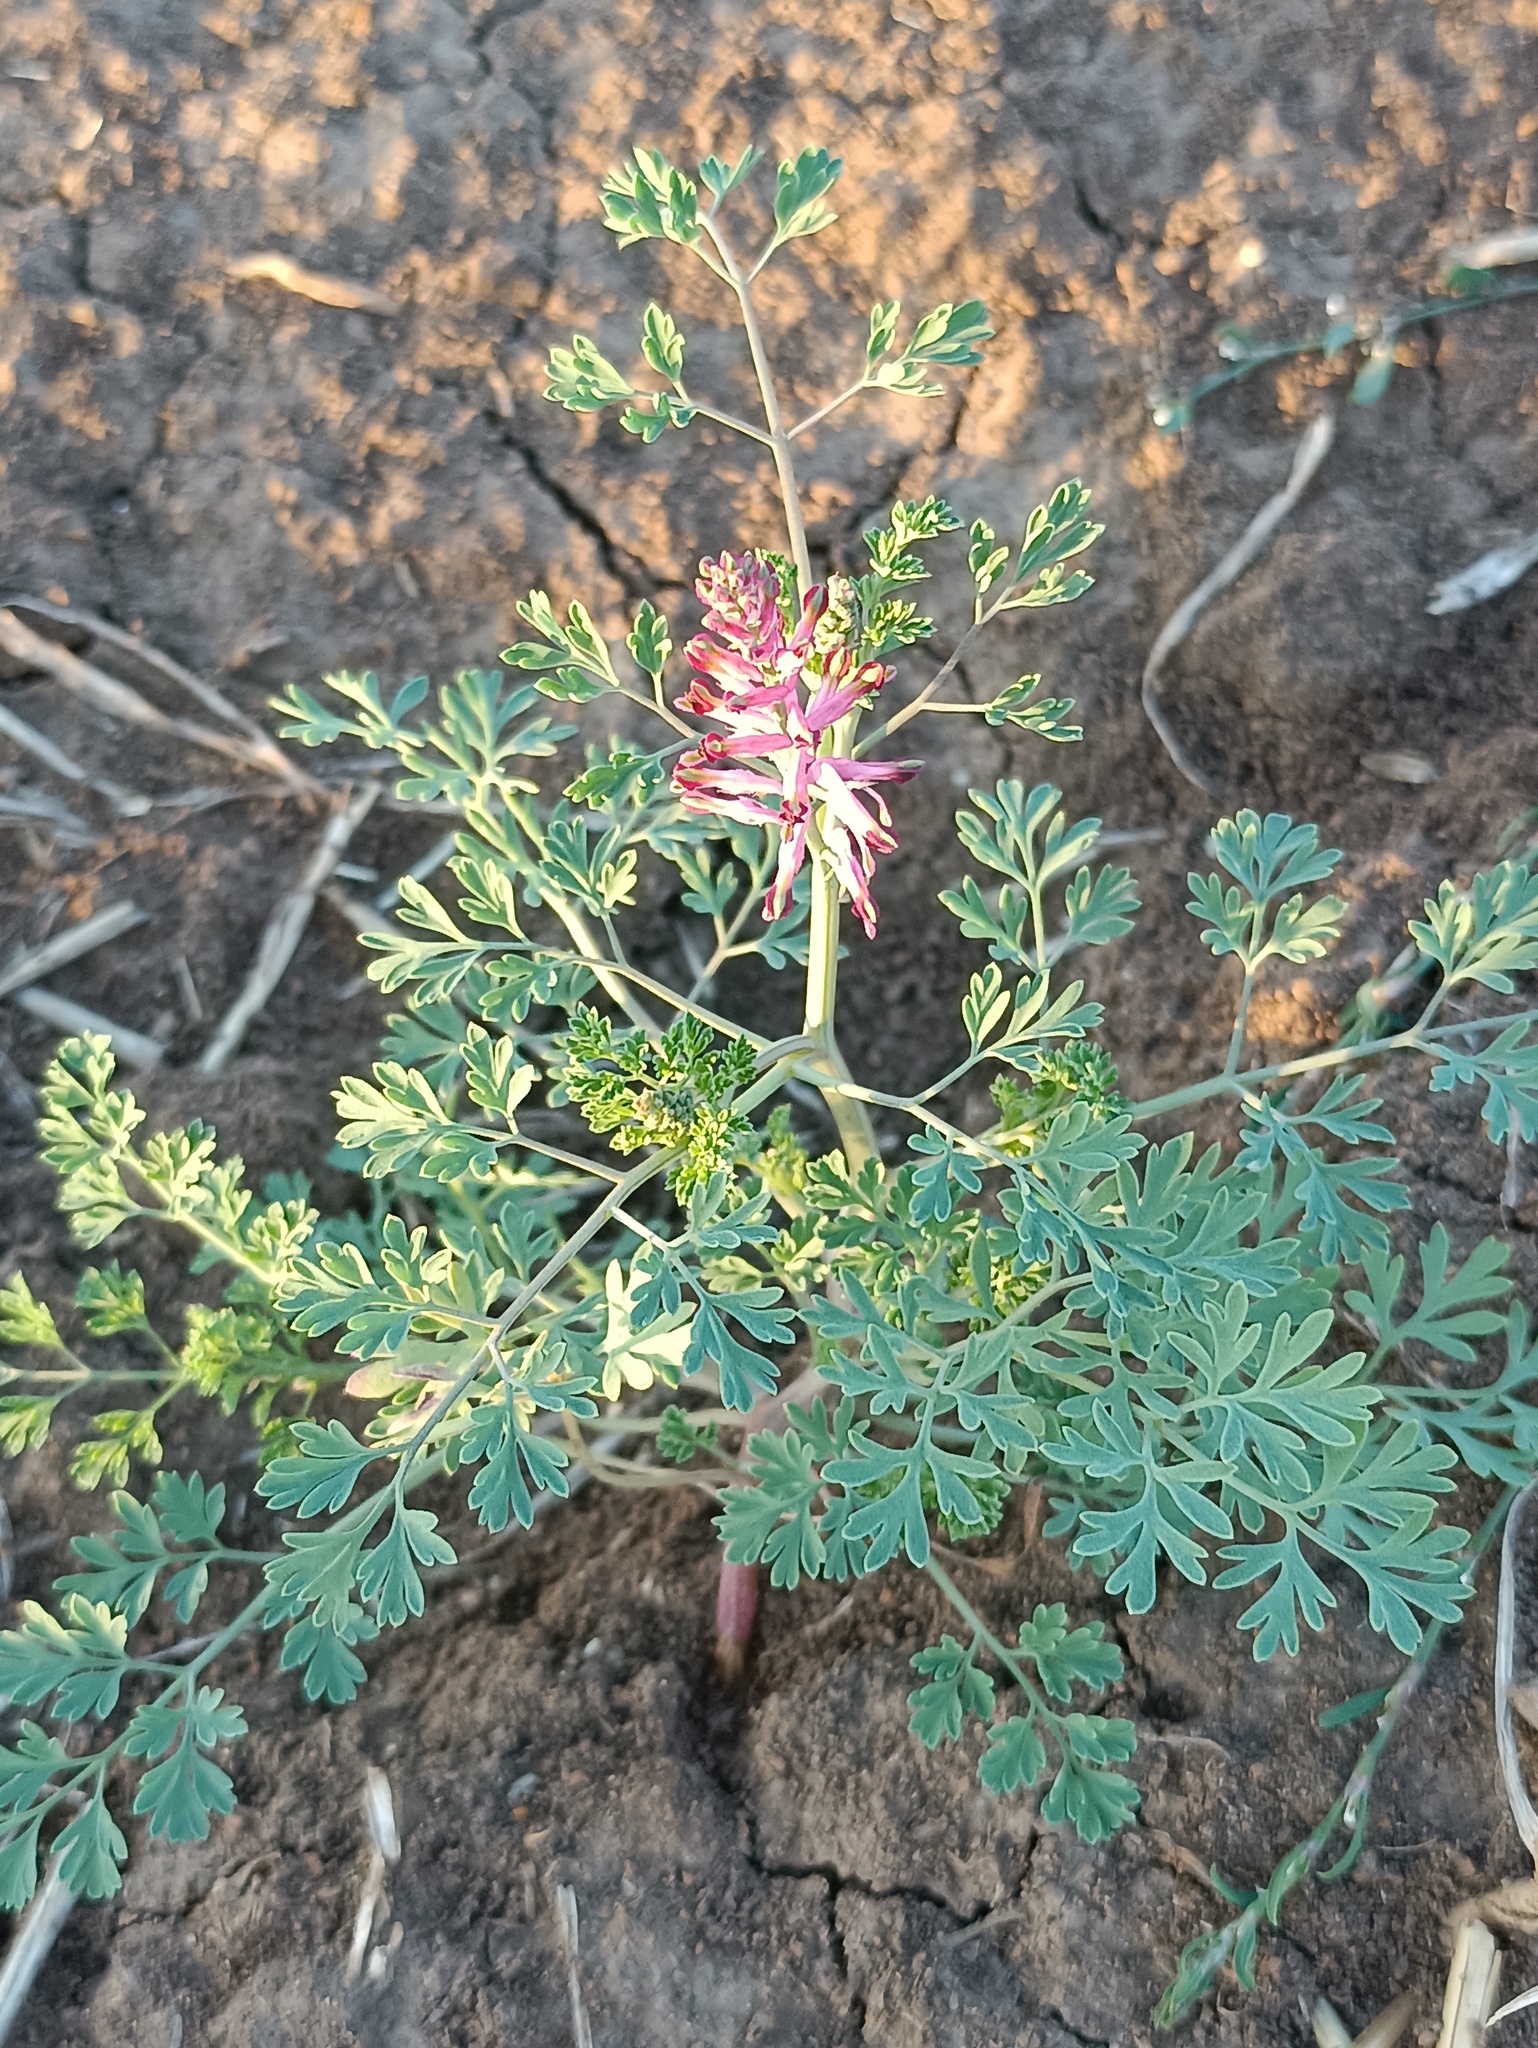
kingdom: Plantae
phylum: Tracheophyta
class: Magnoliopsida
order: Ranunculales
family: Papaveraceae
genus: Fumaria
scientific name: Fumaria officinalis
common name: Common fumitory
